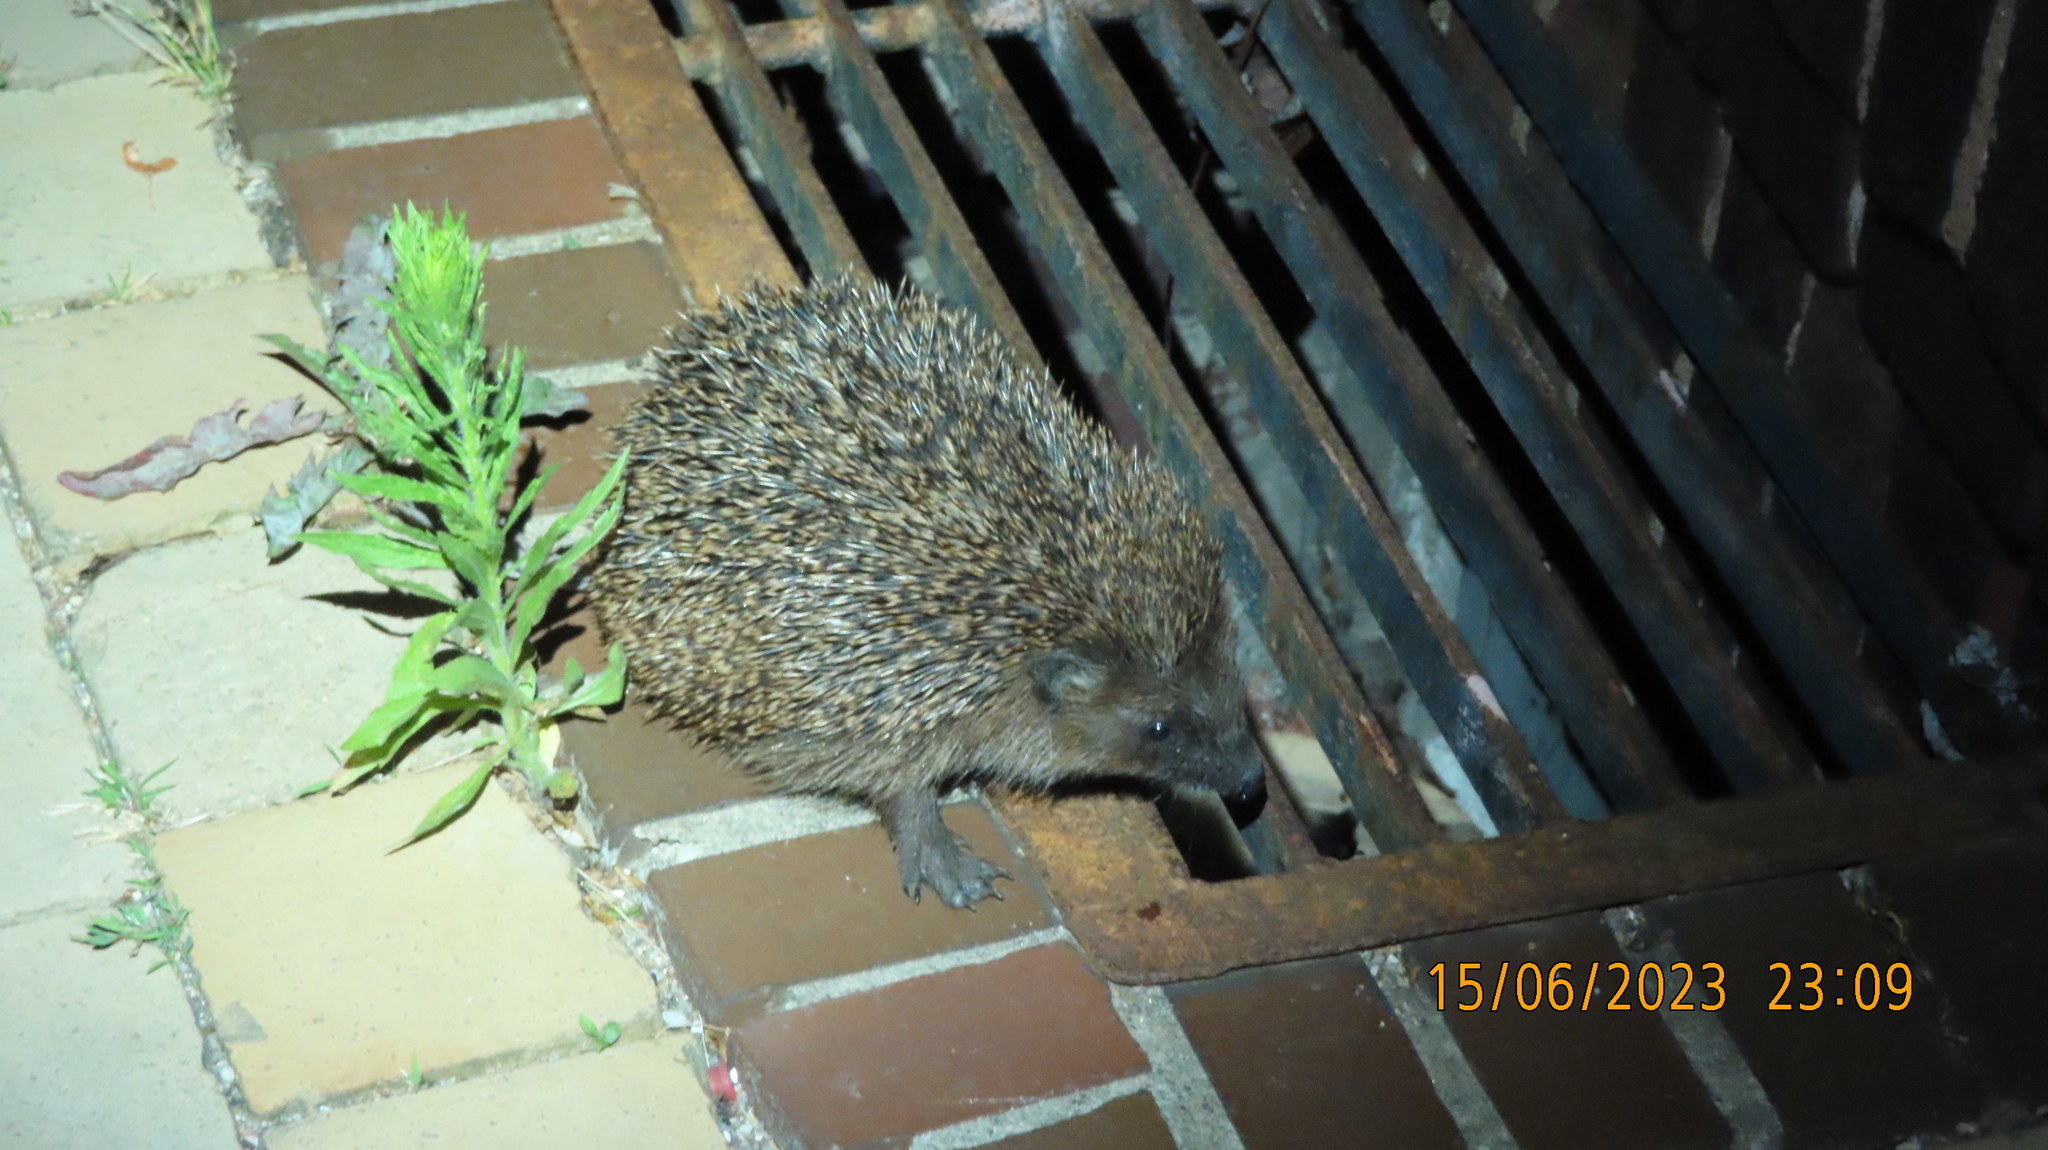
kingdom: Animalia
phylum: Chordata
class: Mammalia
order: Erinaceomorpha
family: Erinaceidae
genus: Erinaceus
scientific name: Erinaceus europaeus
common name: West european hedgehog
